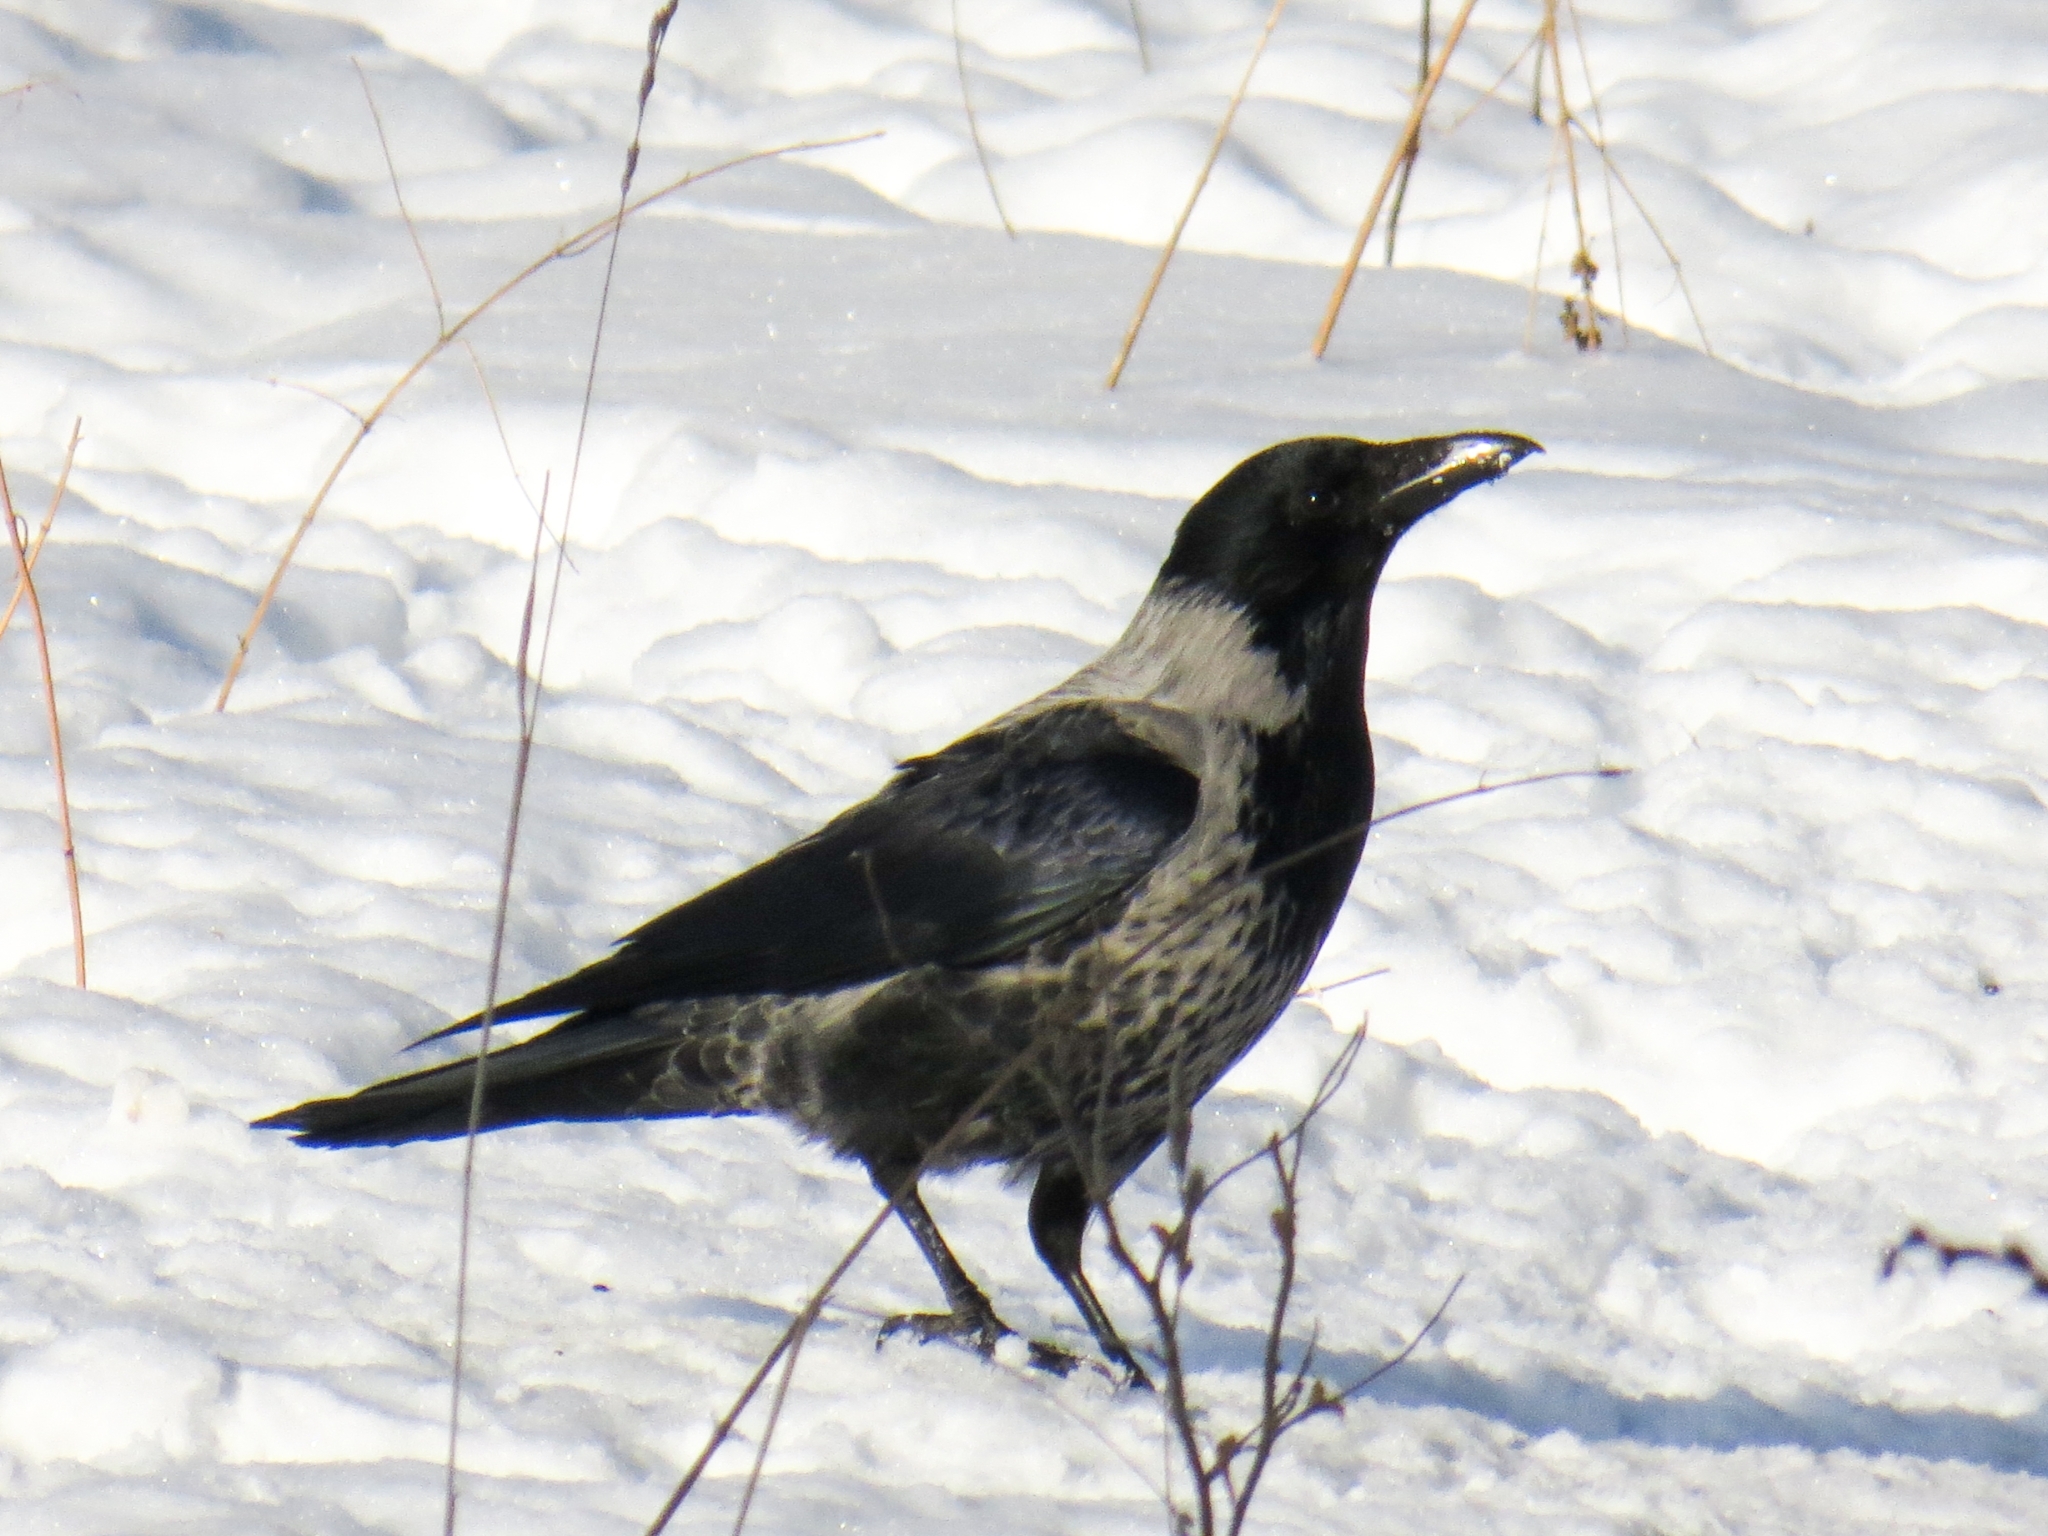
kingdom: Animalia
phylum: Chordata
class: Aves
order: Passeriformes
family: Corvidae
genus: Corvus
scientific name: Corvus
